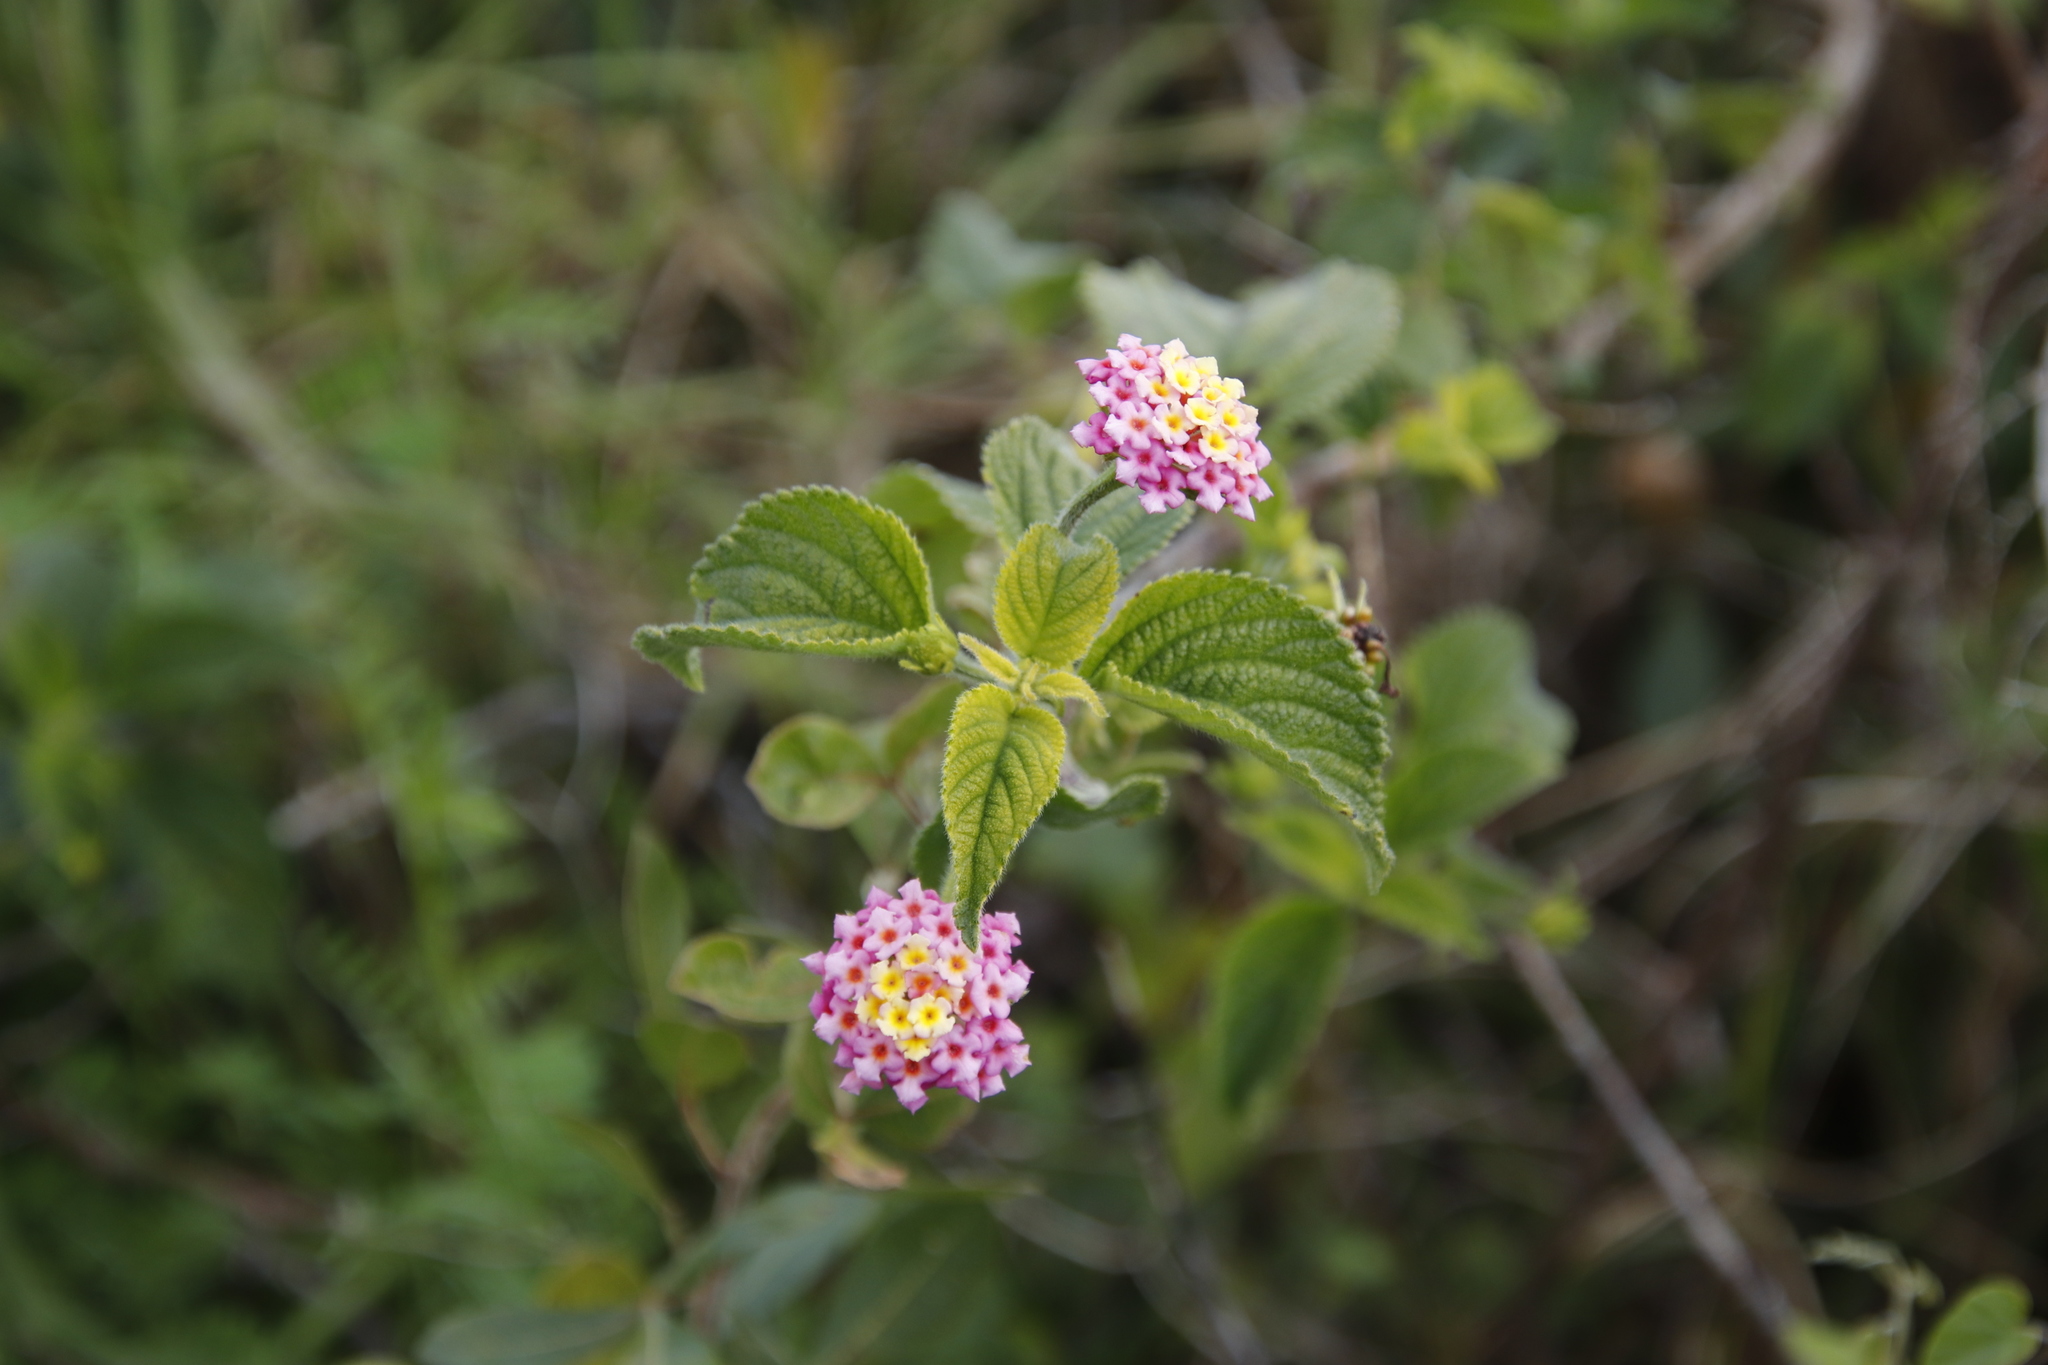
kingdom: Plantae
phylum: Tracheophyta
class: Magnoliopsida
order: Lamiales
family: Verbenaceae
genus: Lantana
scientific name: Lantana camara
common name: Lantana
